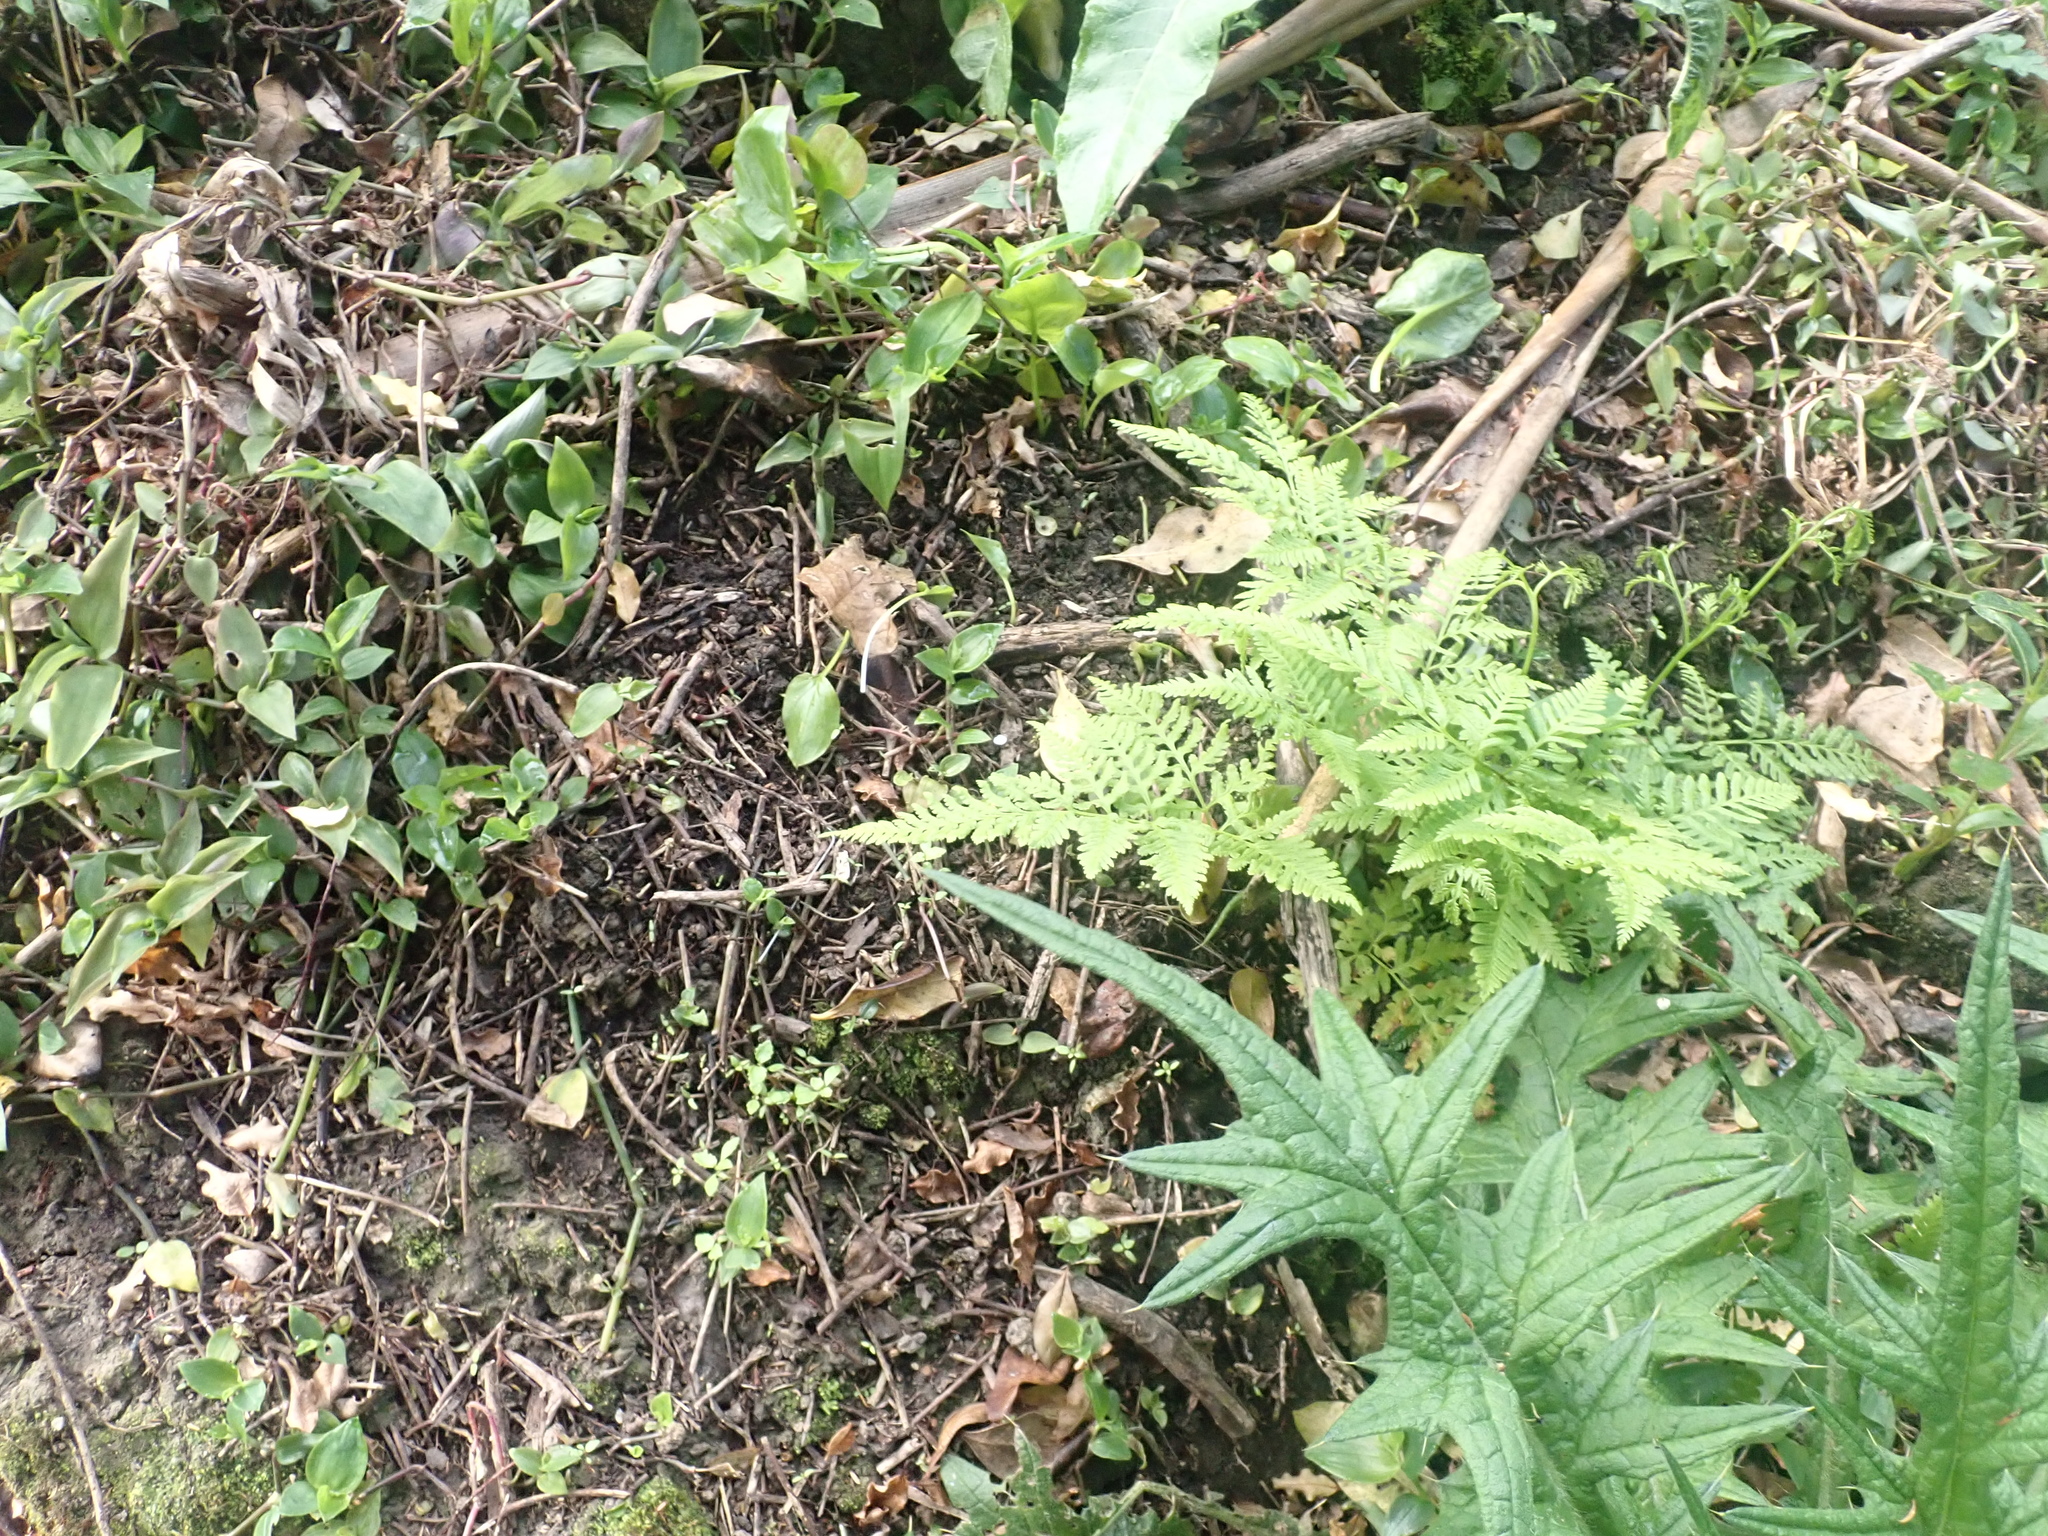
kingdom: Plantae
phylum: Tracheophyta
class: Polypodiopsida
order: Polypodiales
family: Pteridaceae
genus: Pteris
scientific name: Pteris tremula
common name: Australian brake
